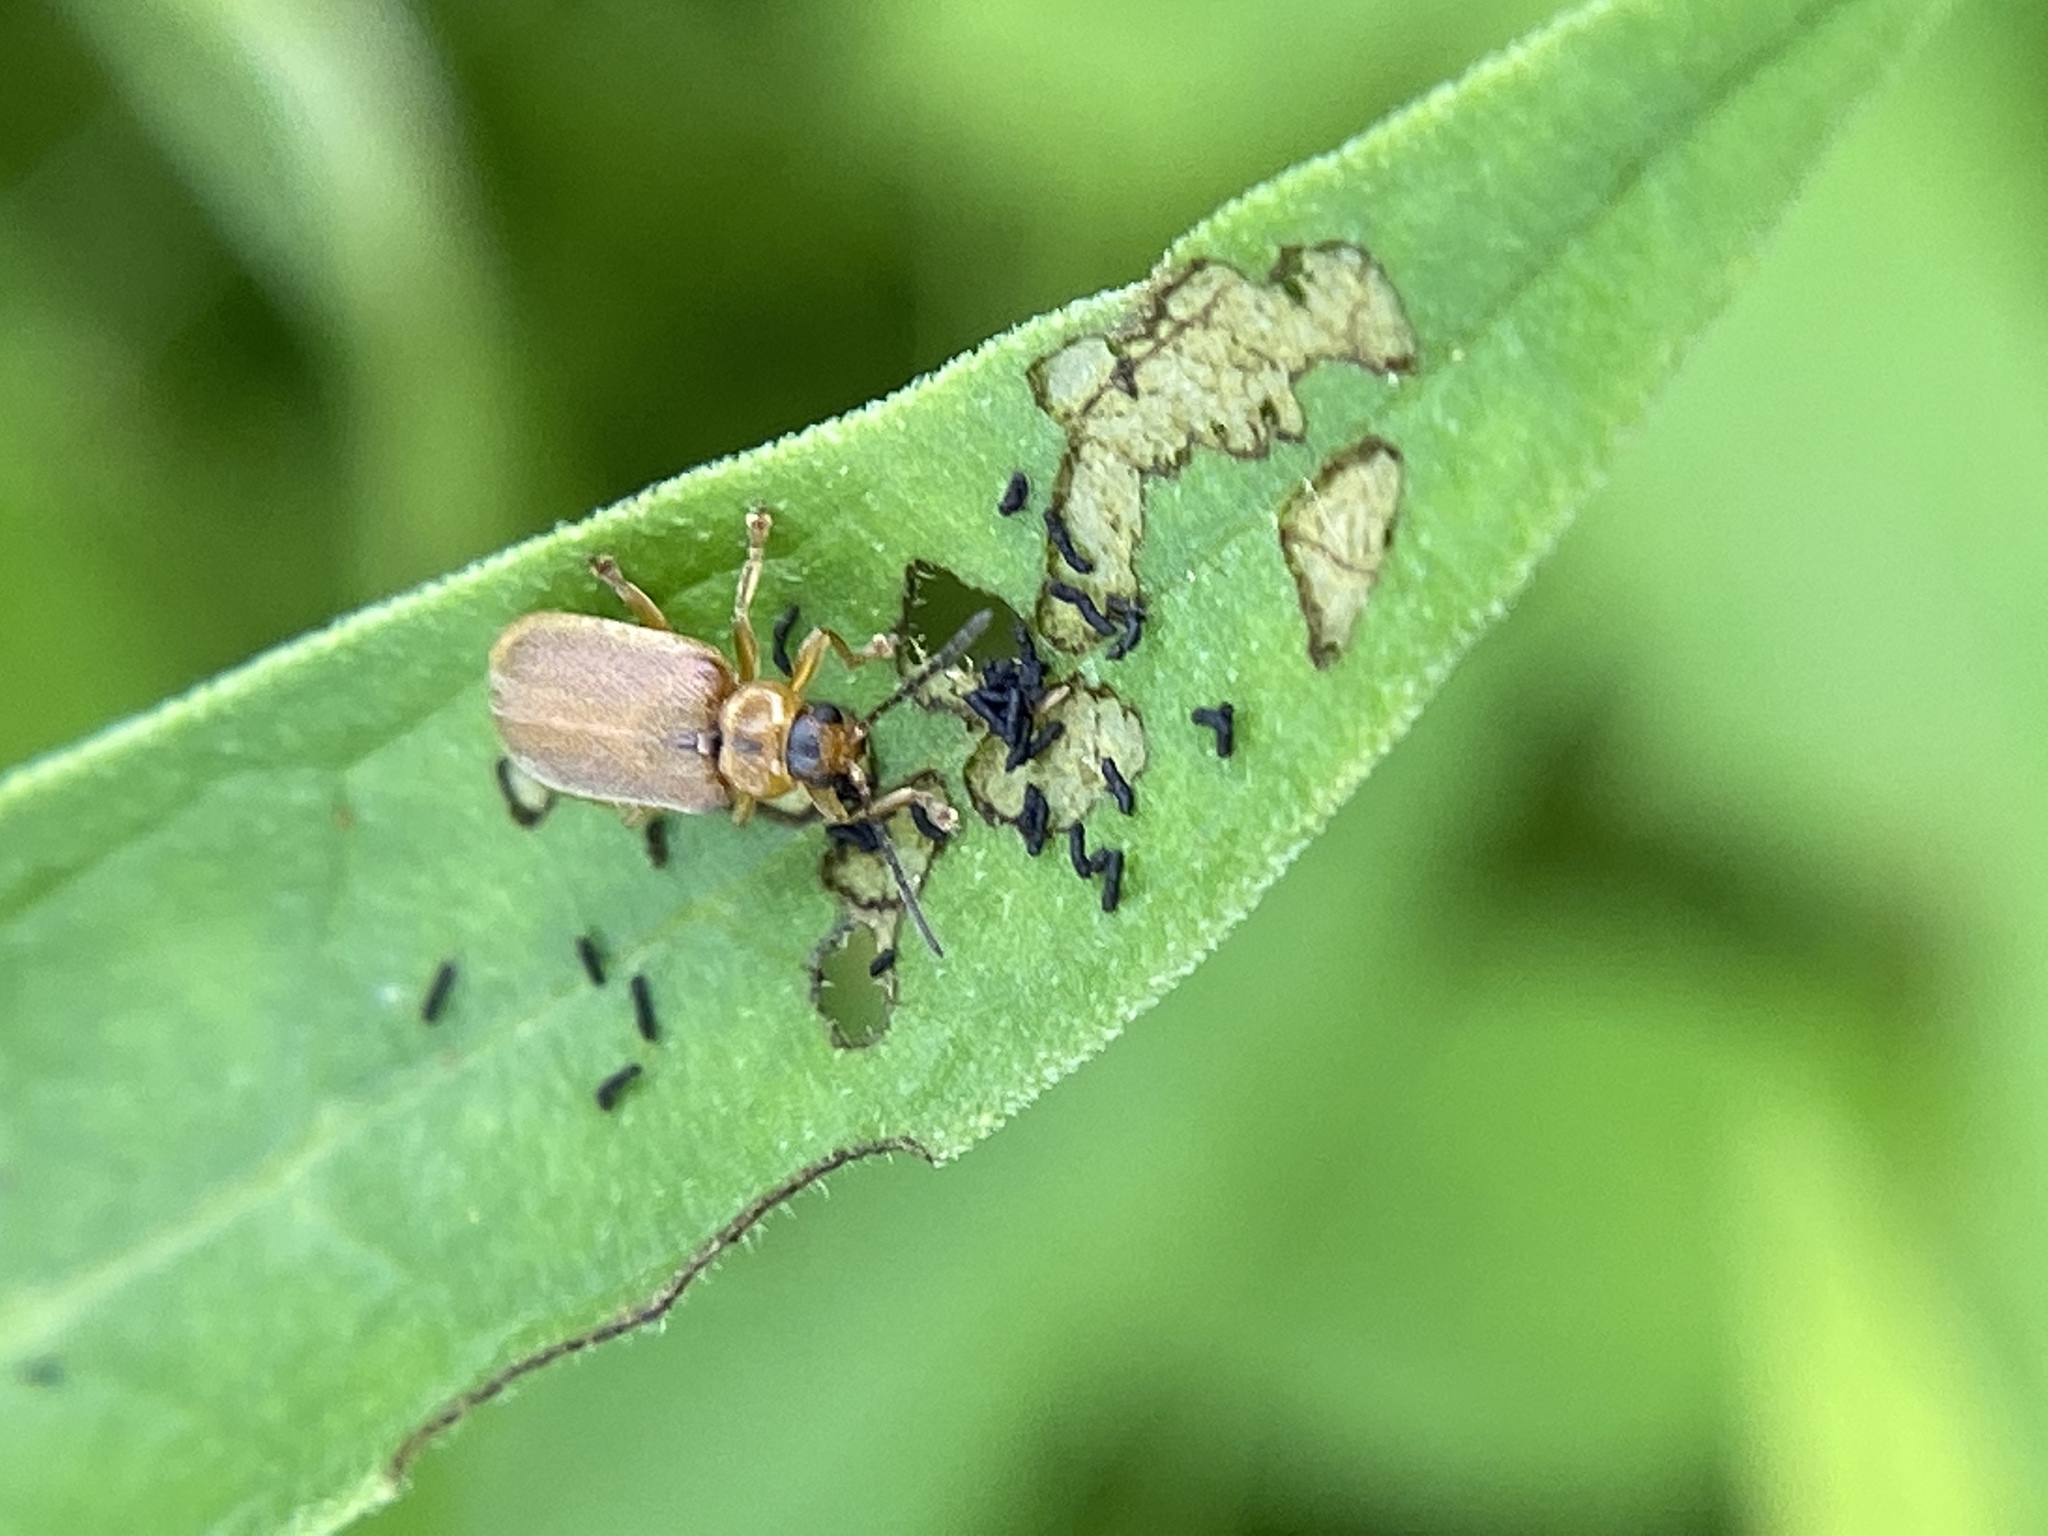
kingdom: Animalia
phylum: Arthropoda
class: Insecta
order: Coleoptera
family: Chrysomelidae
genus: Neogalerucella
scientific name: Neogalerucella calmariensis
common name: Black-margined loosestrife beetle
